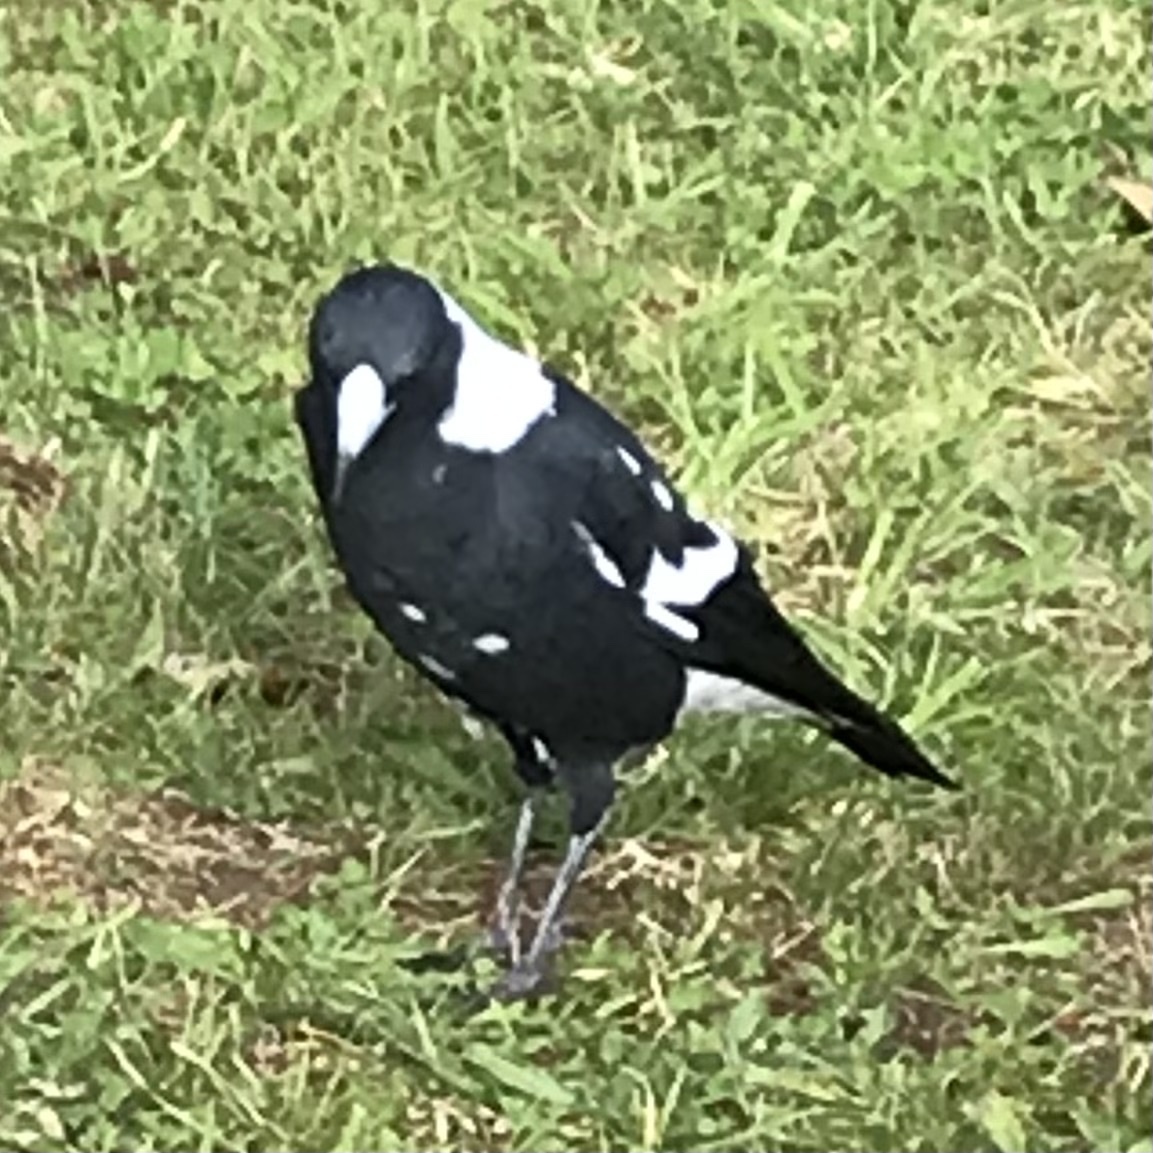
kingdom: Animalia
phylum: Chordata
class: Aves
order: Passeriformes
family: Cracticidae
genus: Gymnorhina
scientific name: Gymnorhina tibicen
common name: Australian magpie
